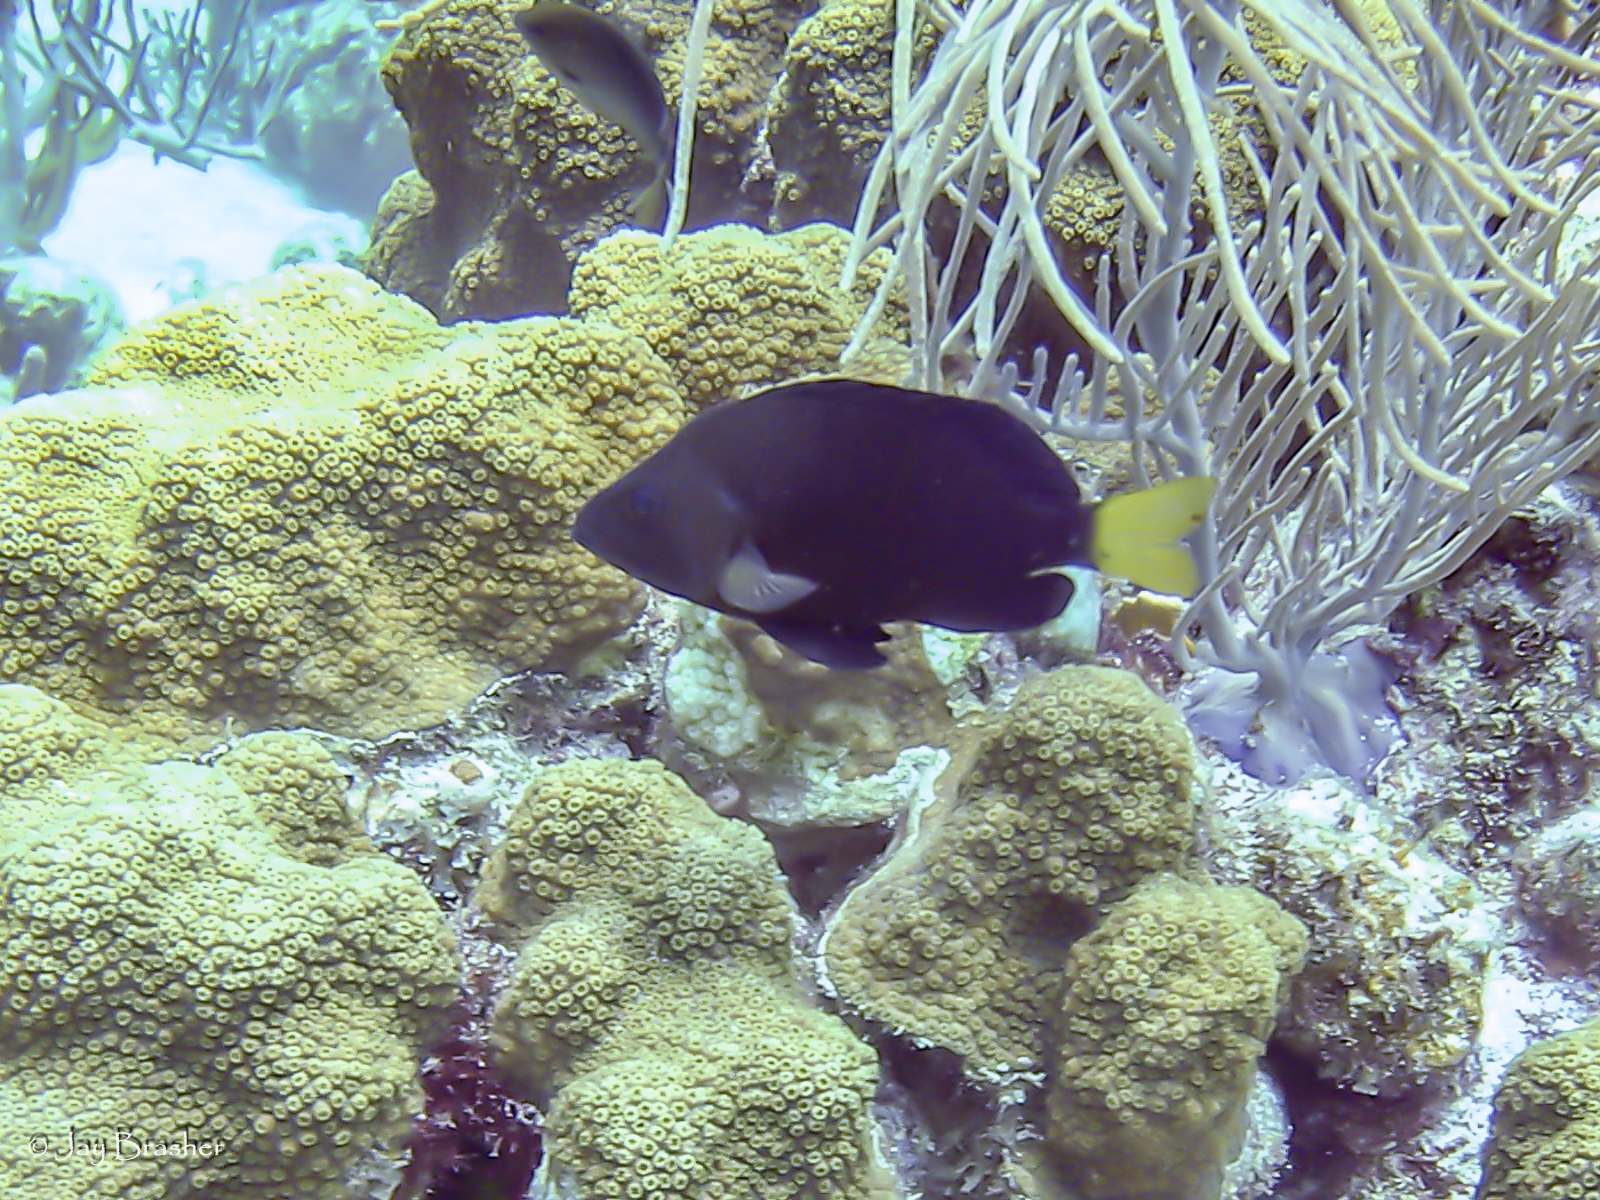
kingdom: Animalia
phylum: Chordata
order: Perciformes
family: Serranidae
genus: Hypoplectrus
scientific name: Hypoplectrus chlorurus
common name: Yellowtail hamlet
